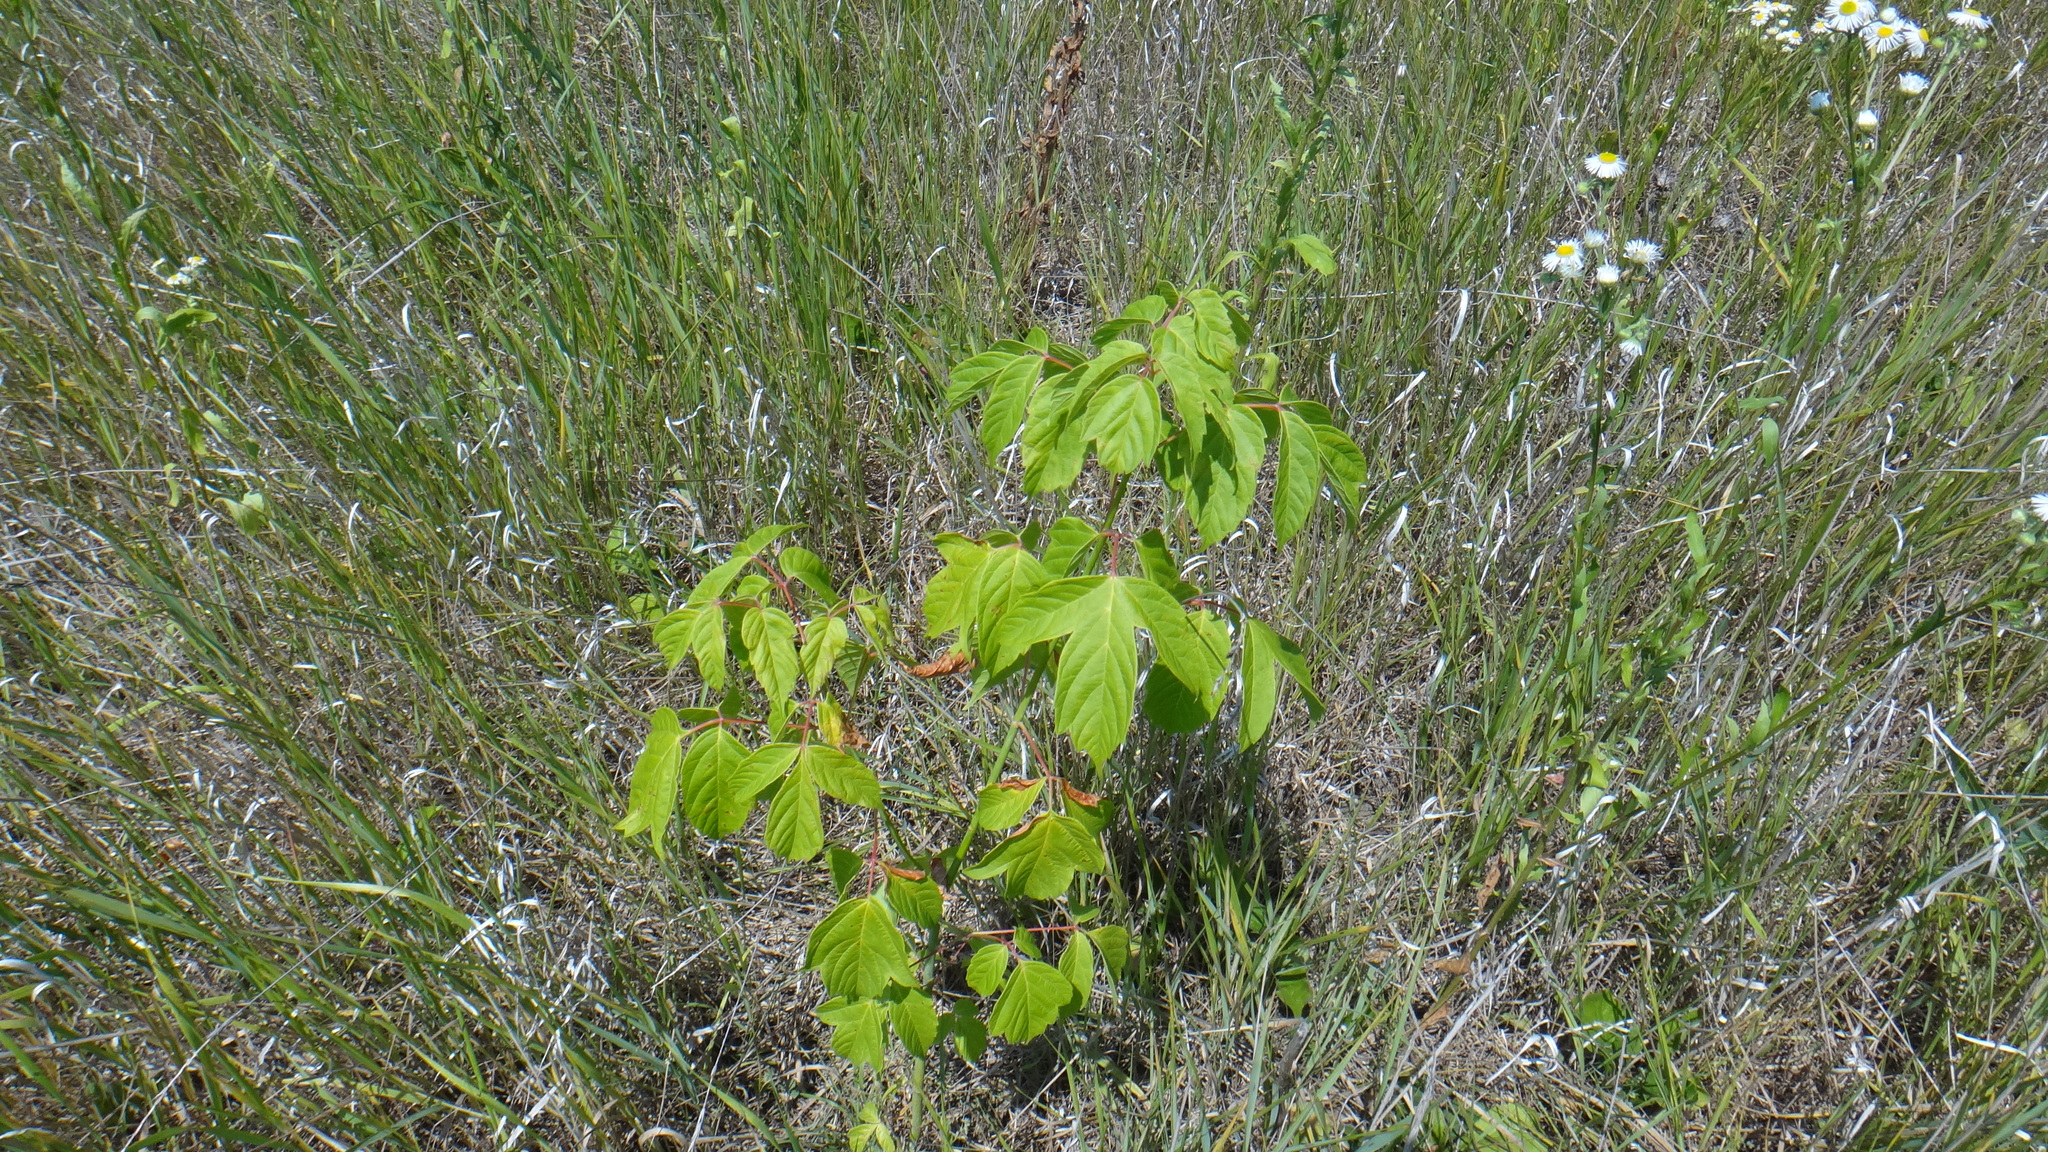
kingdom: Plantae
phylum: Tracheophyta
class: Magnoliopsida
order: Sapindales
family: Sapindaceae
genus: Acer
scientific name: Acer negundo
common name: Ashleaf maple
